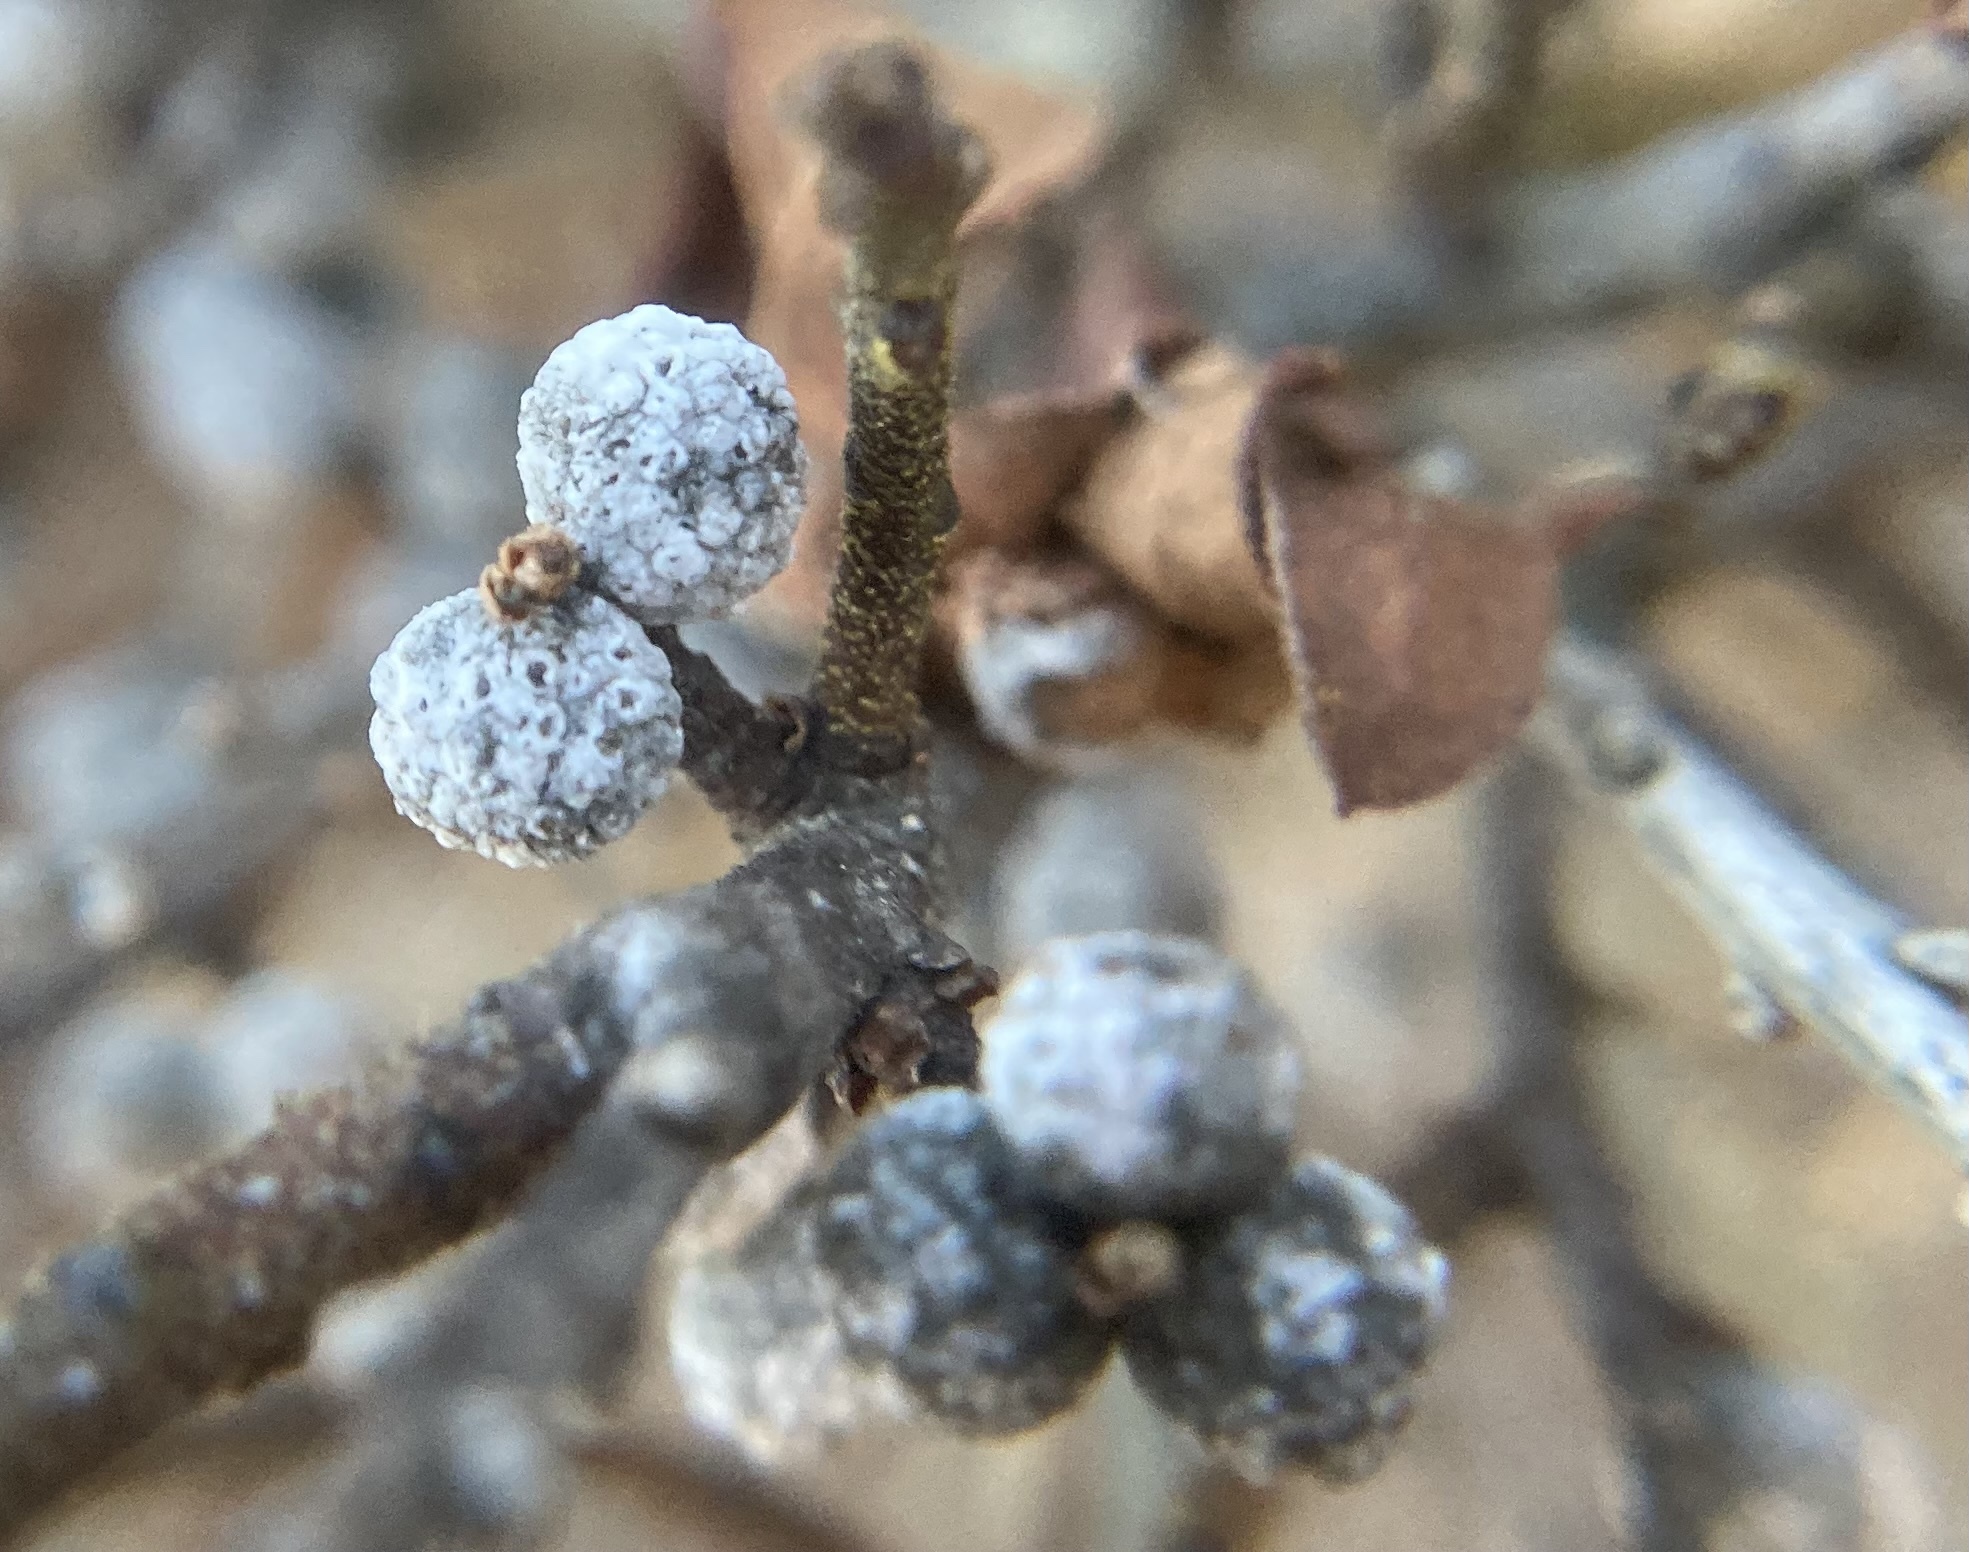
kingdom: Plantae
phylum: Tracheophyta
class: Magnoliopsida
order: Fagales
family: Myricaceae
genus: Morella
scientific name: Morella pensylvanica
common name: Northern bayberry
